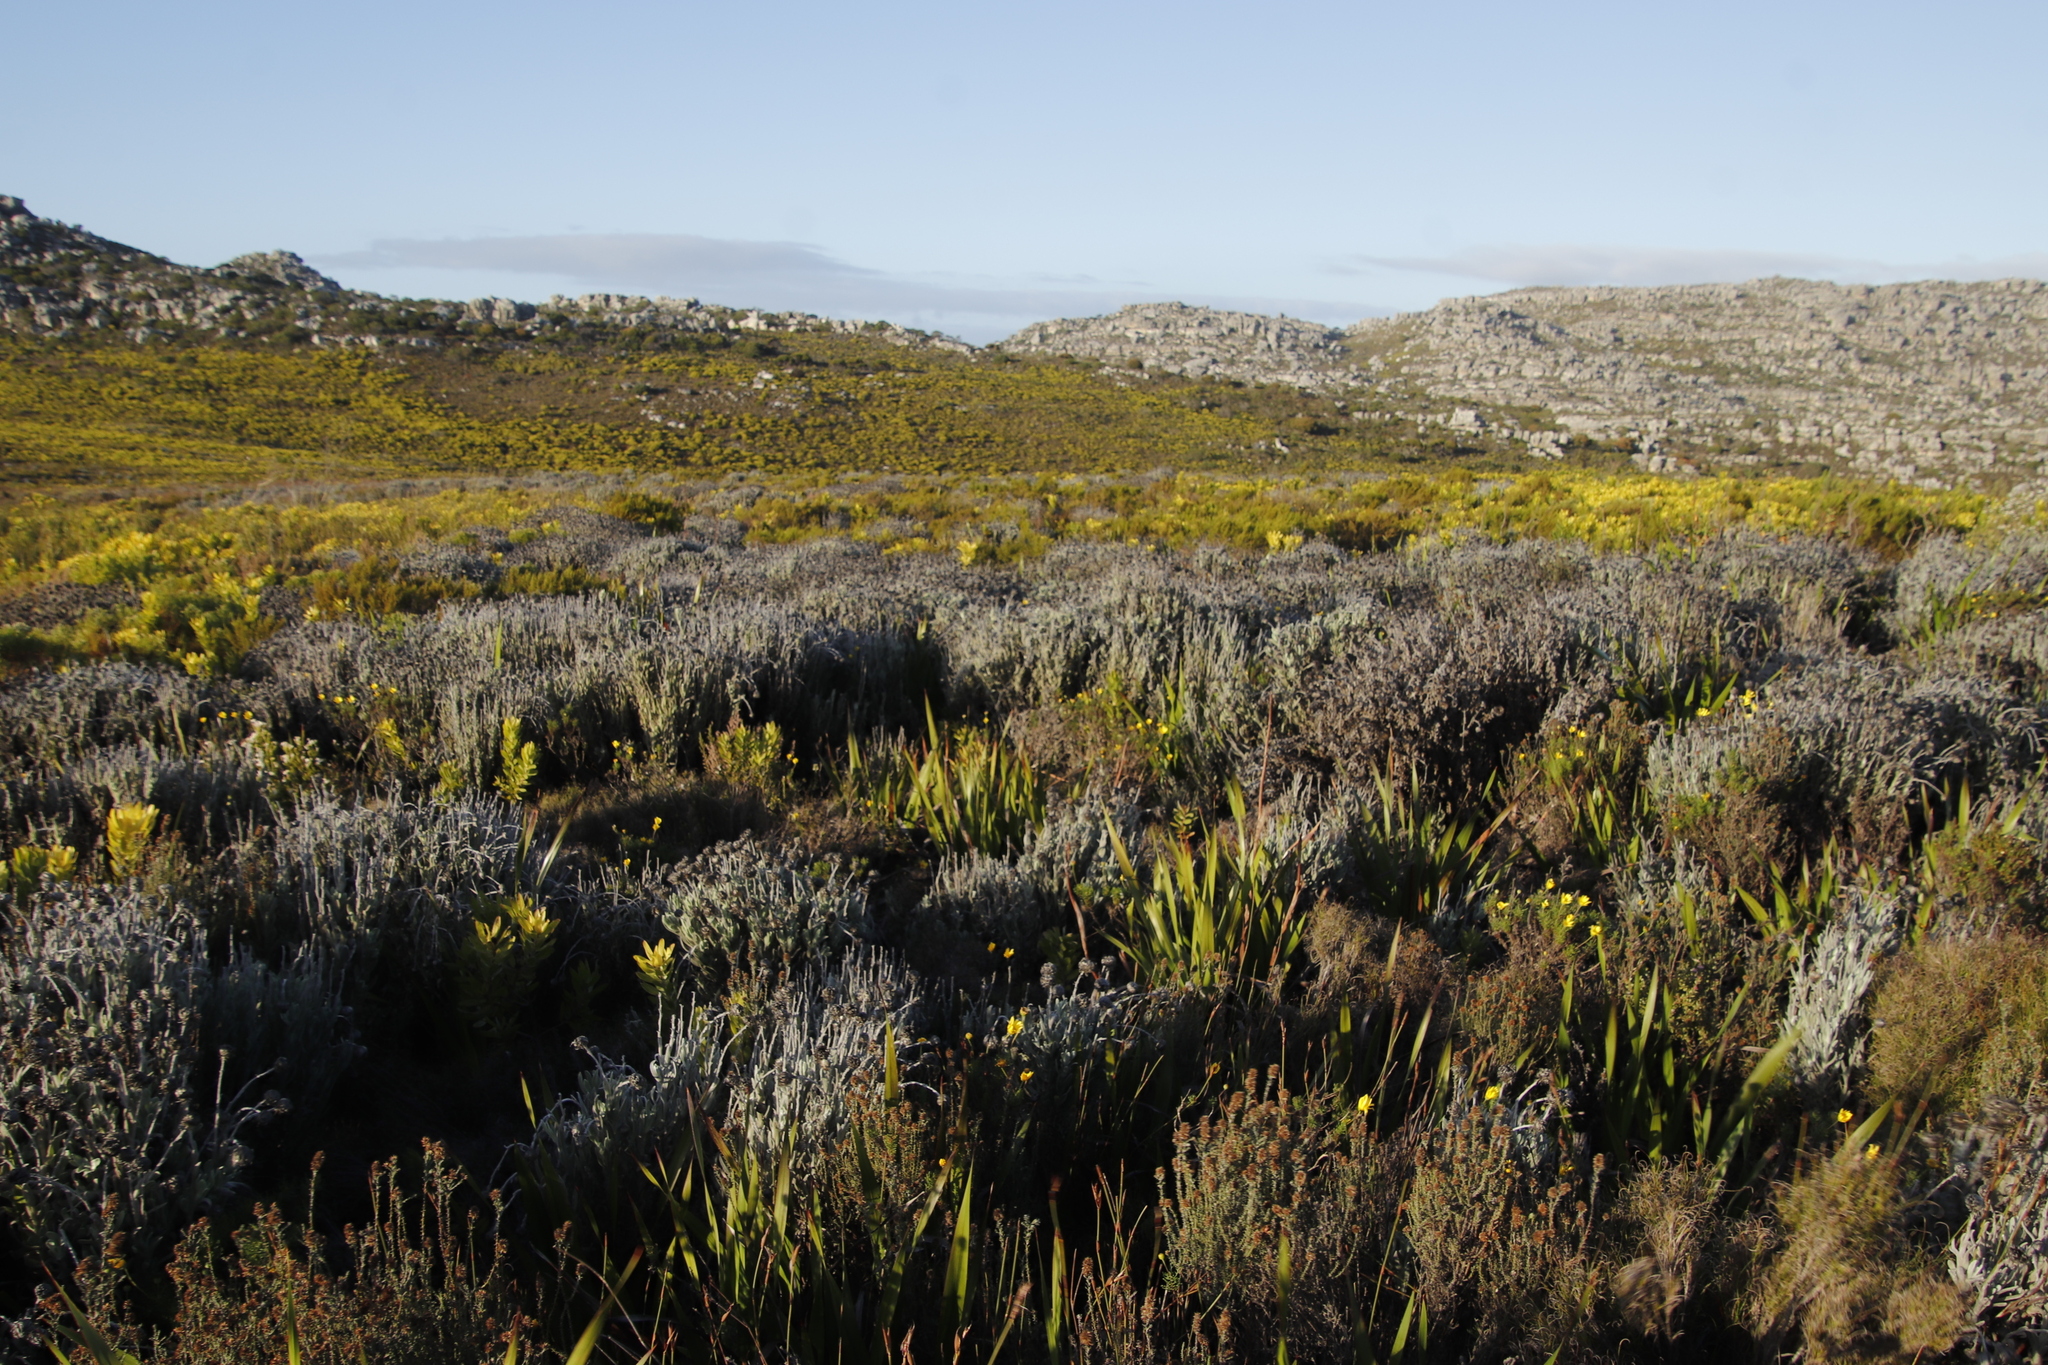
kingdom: Plantae
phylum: Tracheophyta
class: Magnoliopsida
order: Asterales
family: Asteraceae
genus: Syncarpha
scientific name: Syncarpha vestita
